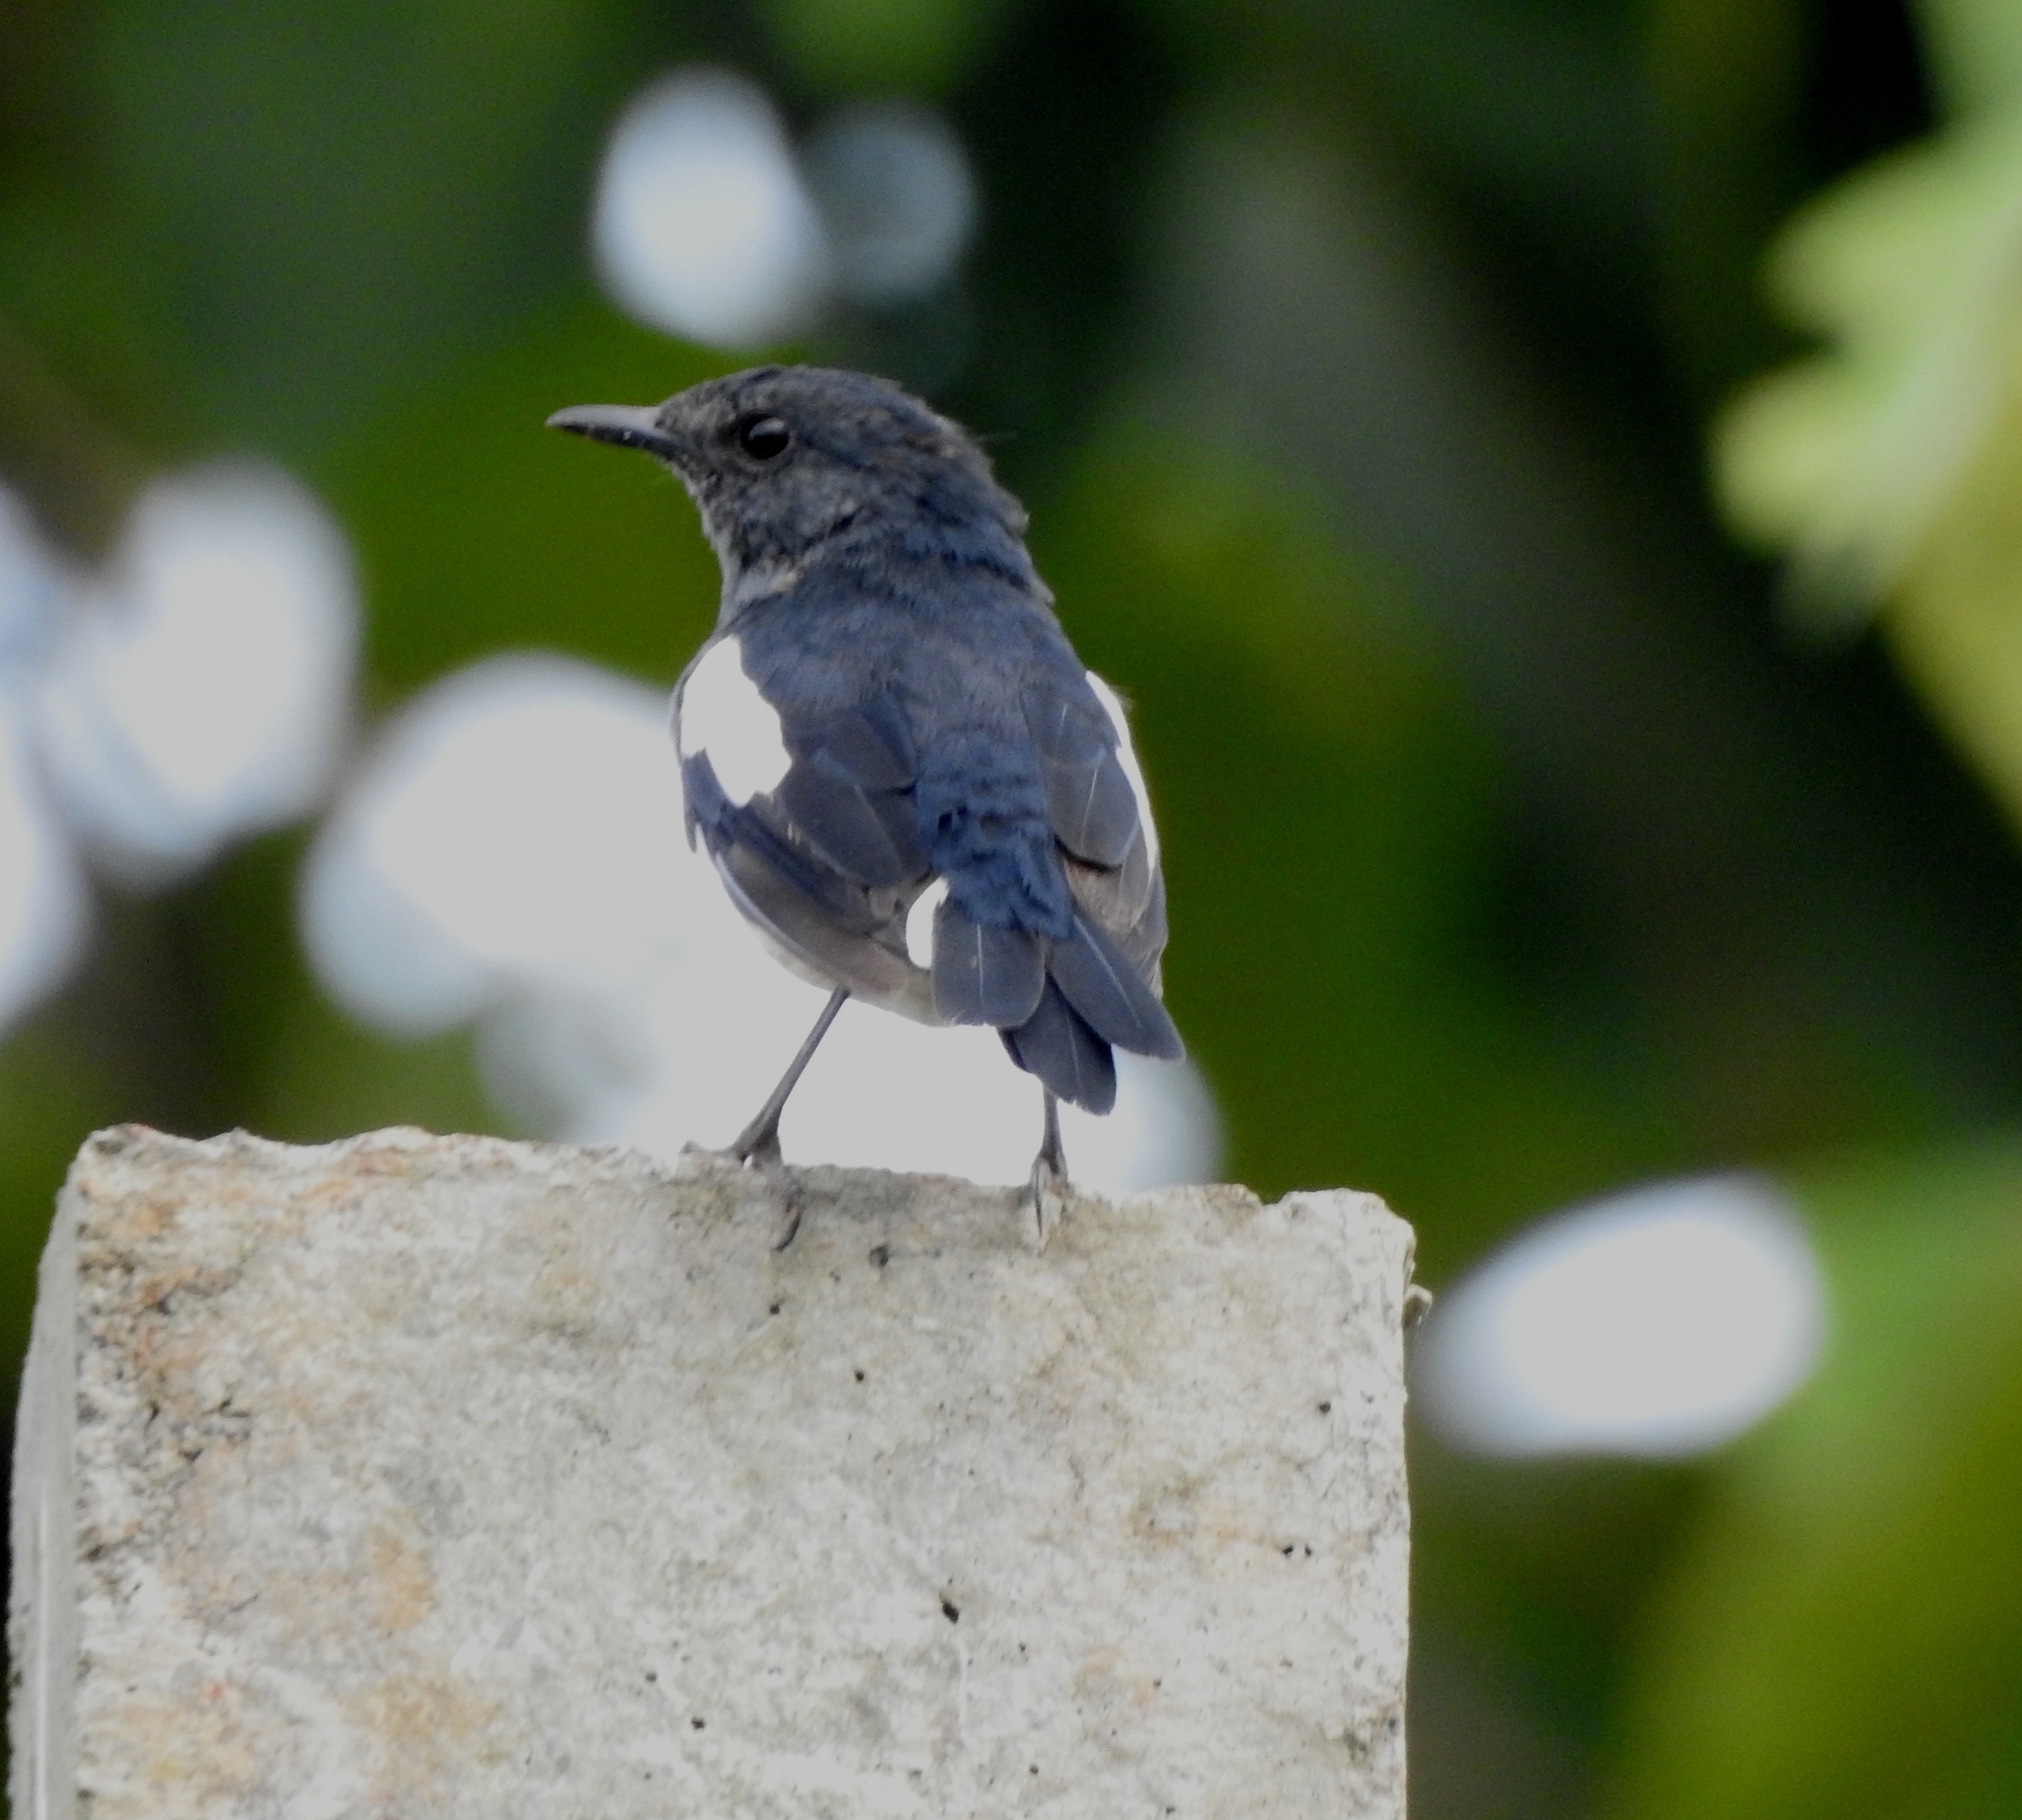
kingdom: Animalia
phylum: Chordata
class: Aves
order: Passeriformes
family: Muscicapidae
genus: Copsychus
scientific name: Copsychus saularis
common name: Oriental magpie-robin
